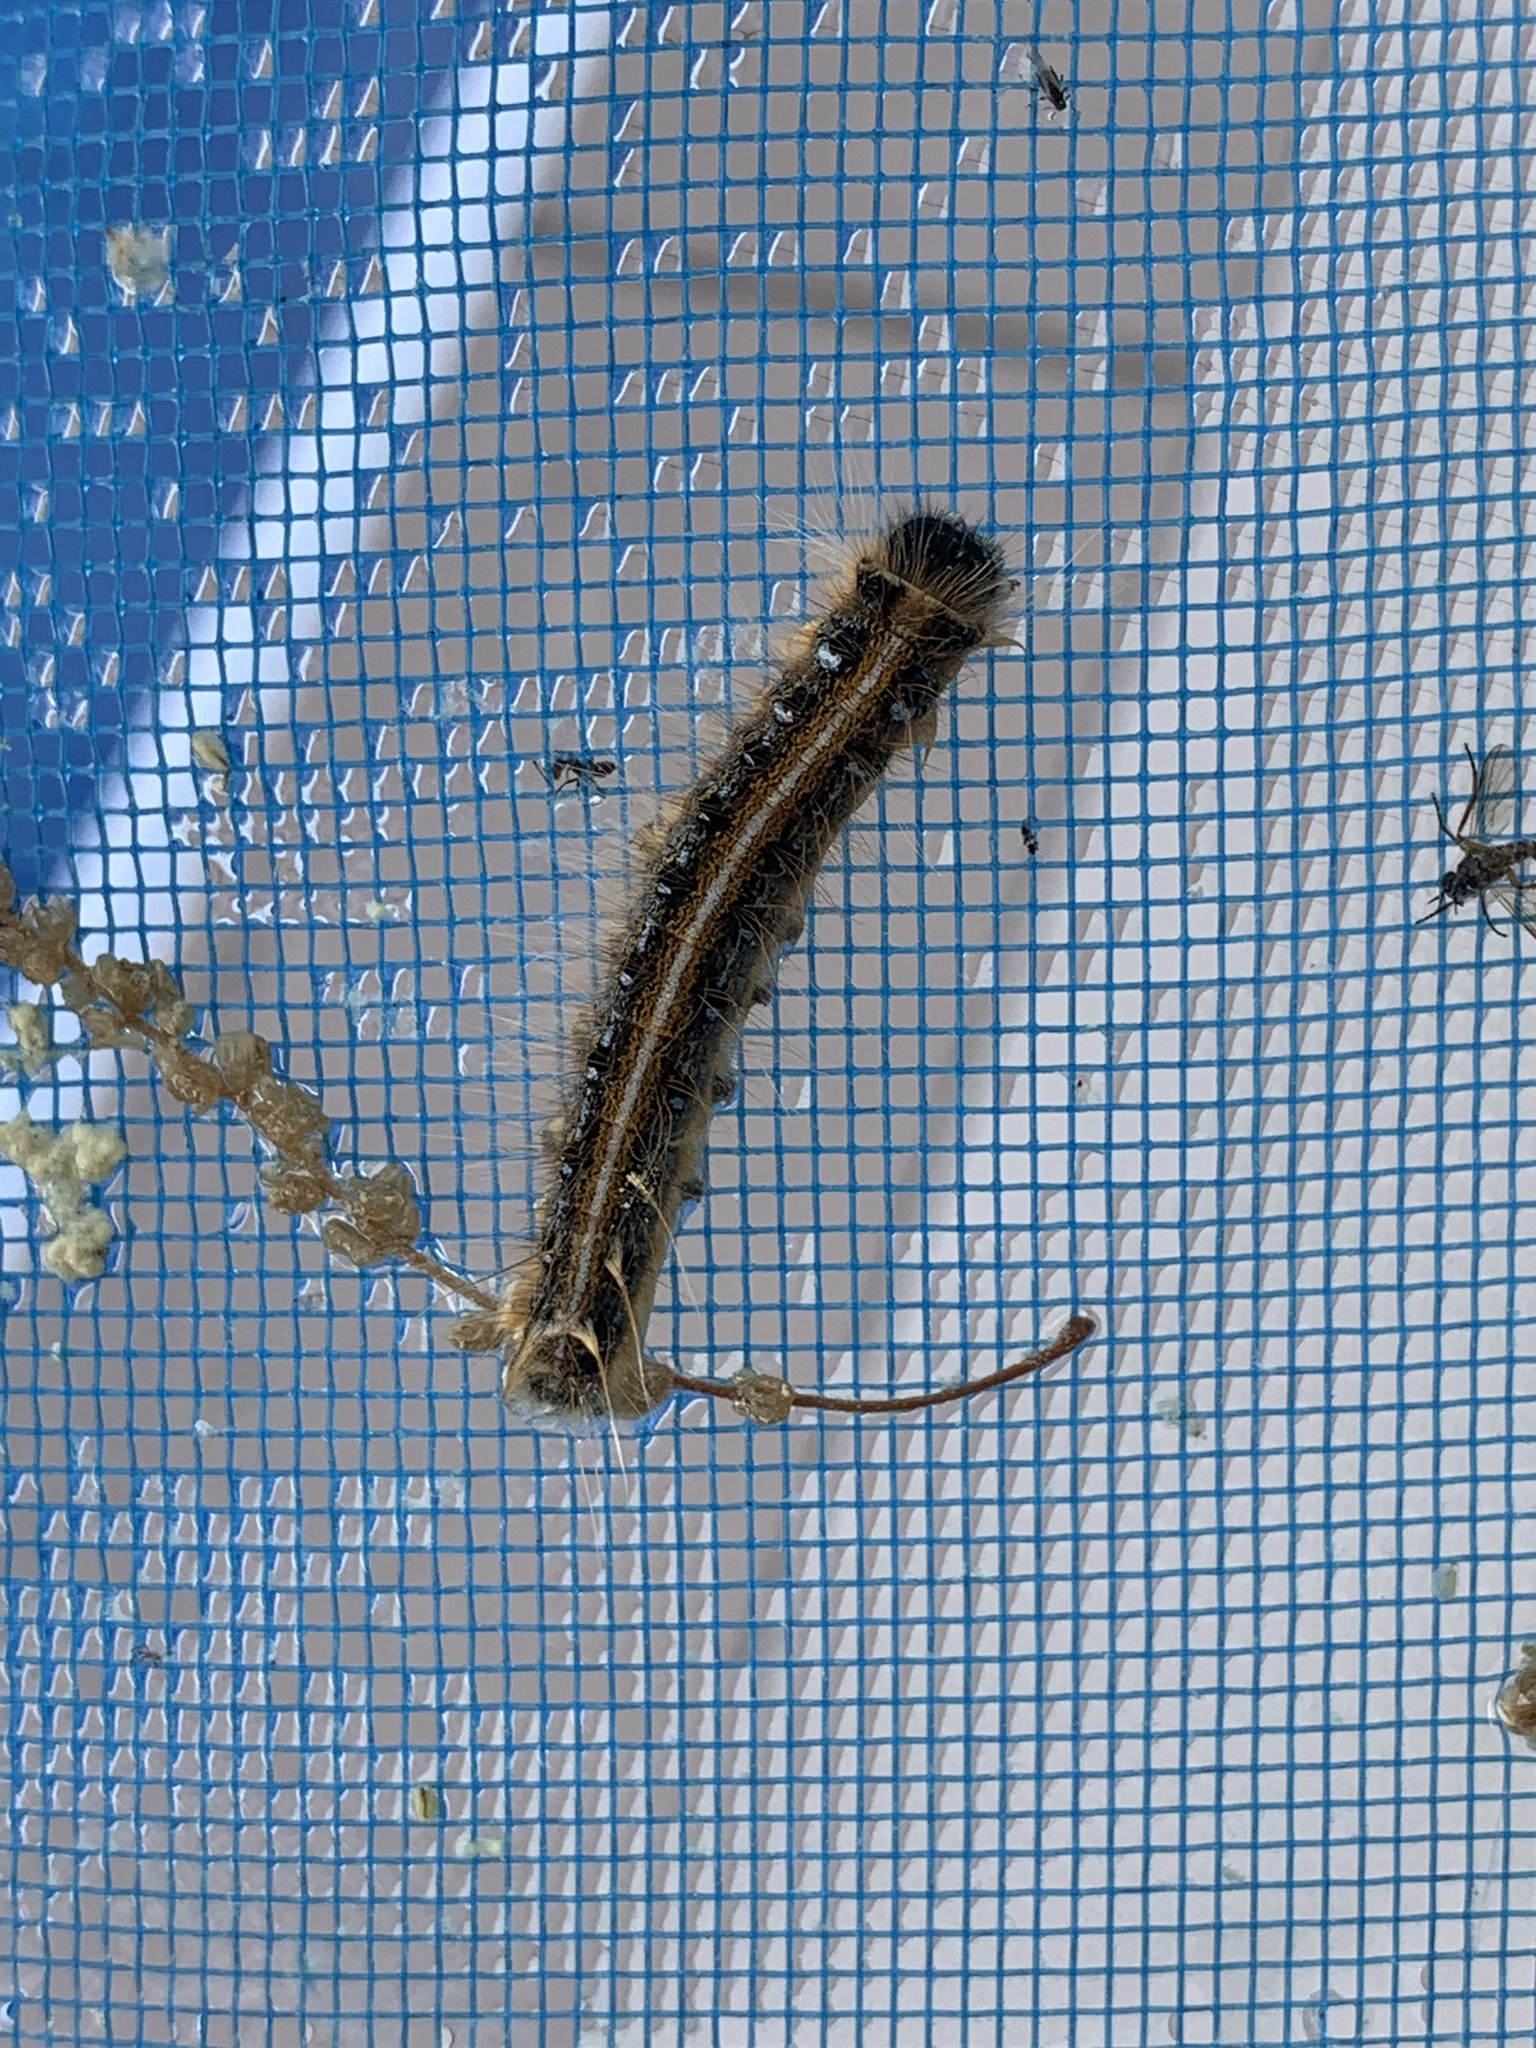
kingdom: Animalia
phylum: Arthropoda
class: Insecta
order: Lepidoptera
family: Lasiocampidae
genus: Malacosoma
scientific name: Malacosoma americana
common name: Eastern tent caterpillar moth
